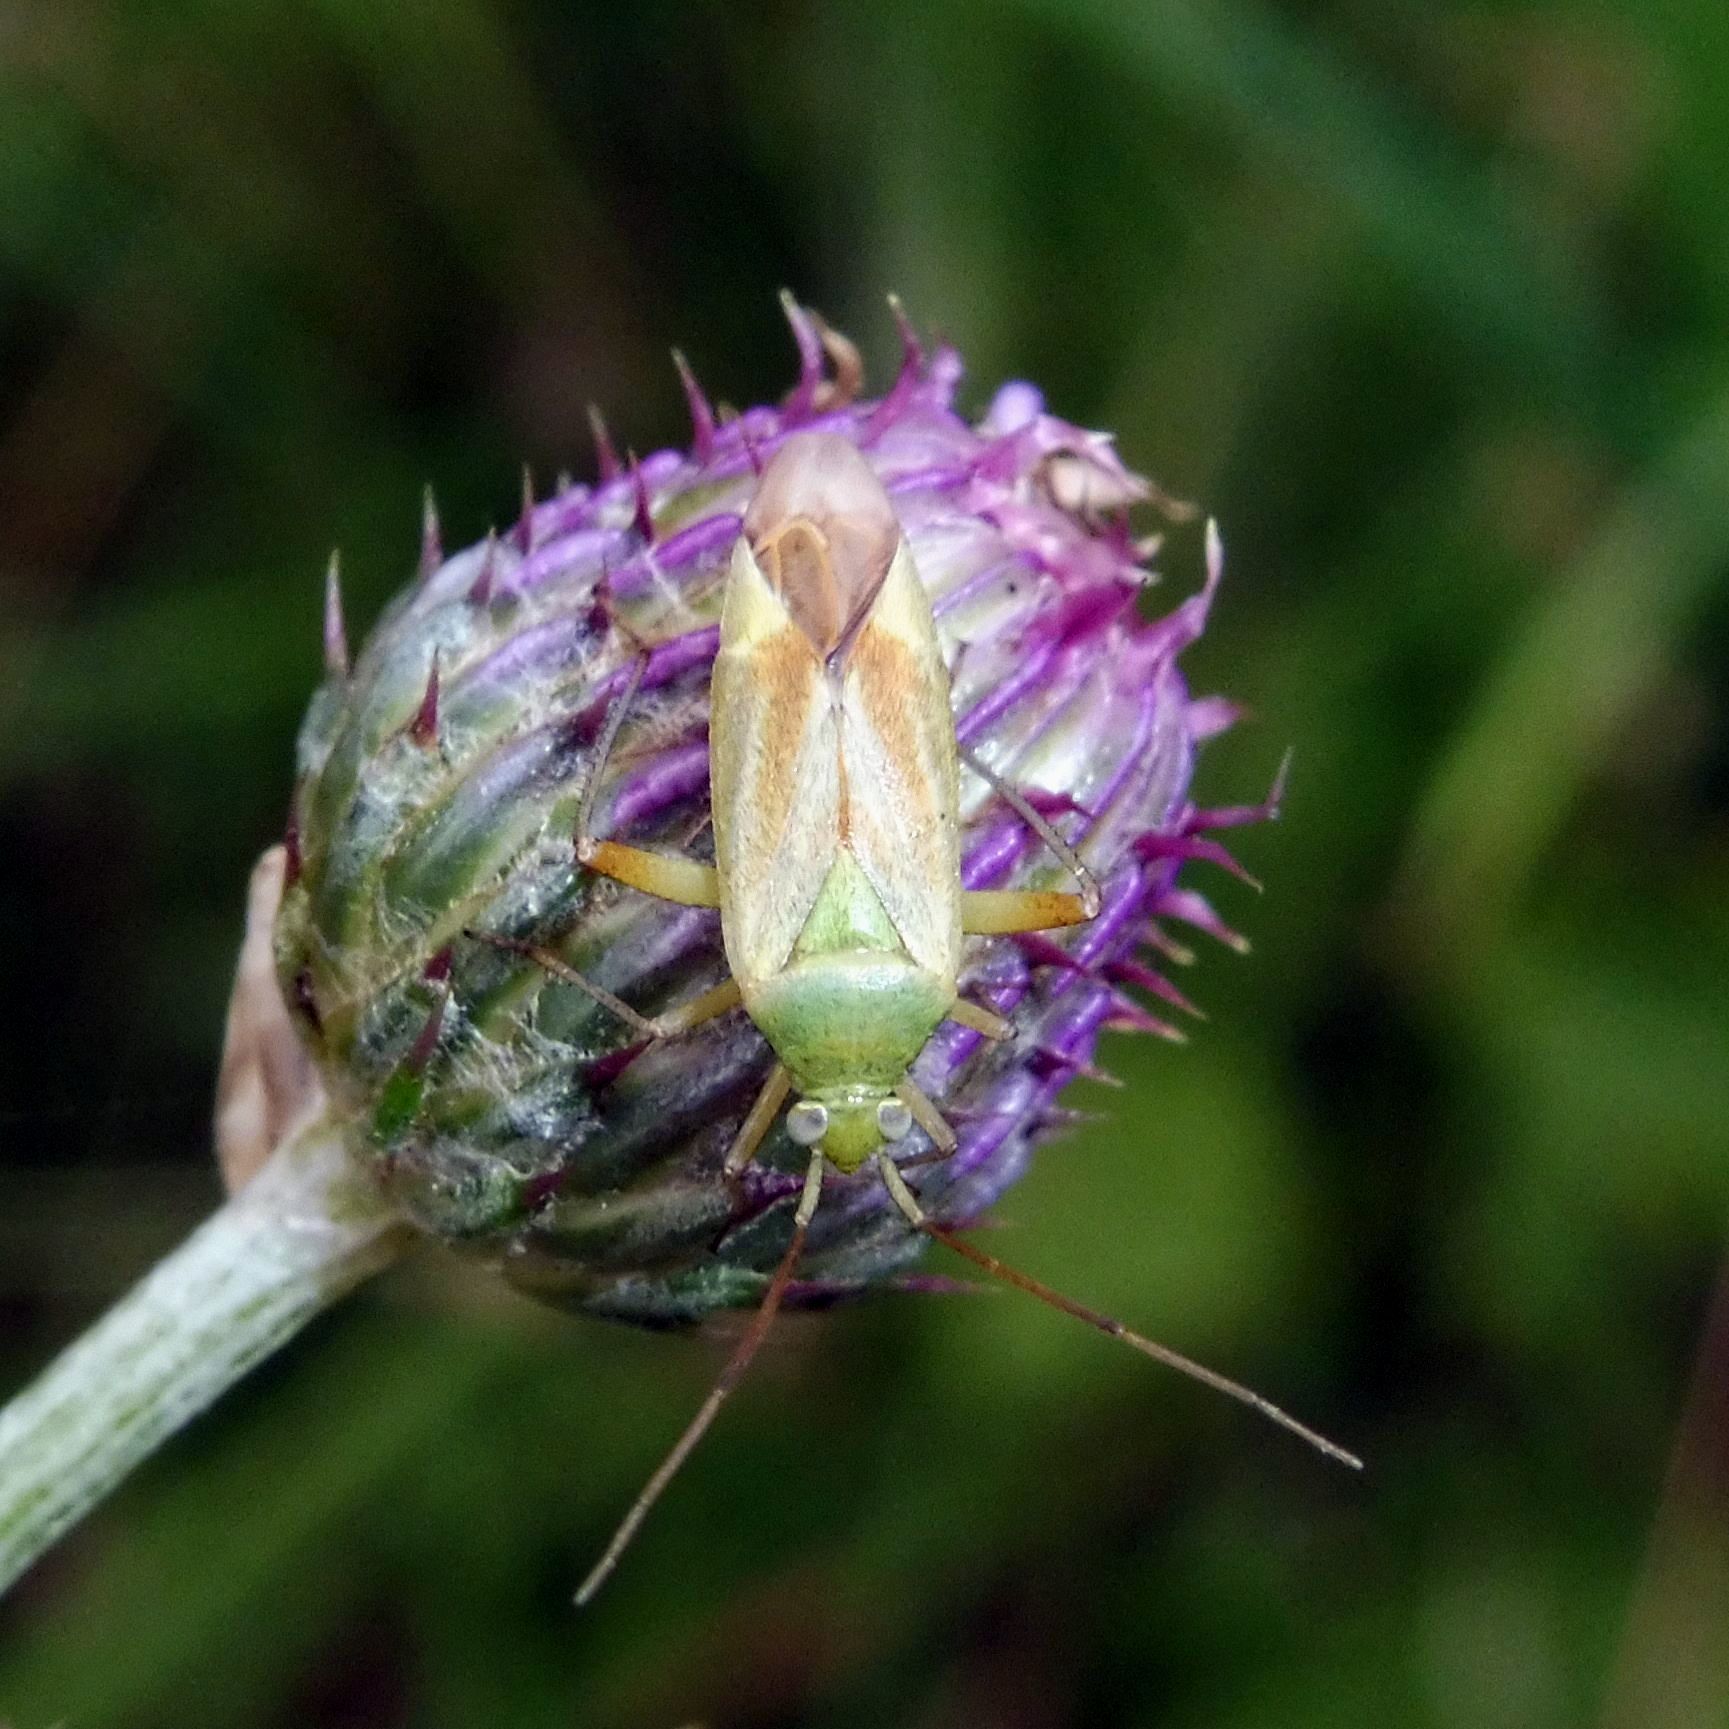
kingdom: Animalia
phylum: Arthropoda
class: Insecta
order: Hemiptera
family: Miridae
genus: Closterotomus
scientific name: Closterotomus norvegicus
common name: Plant bug
